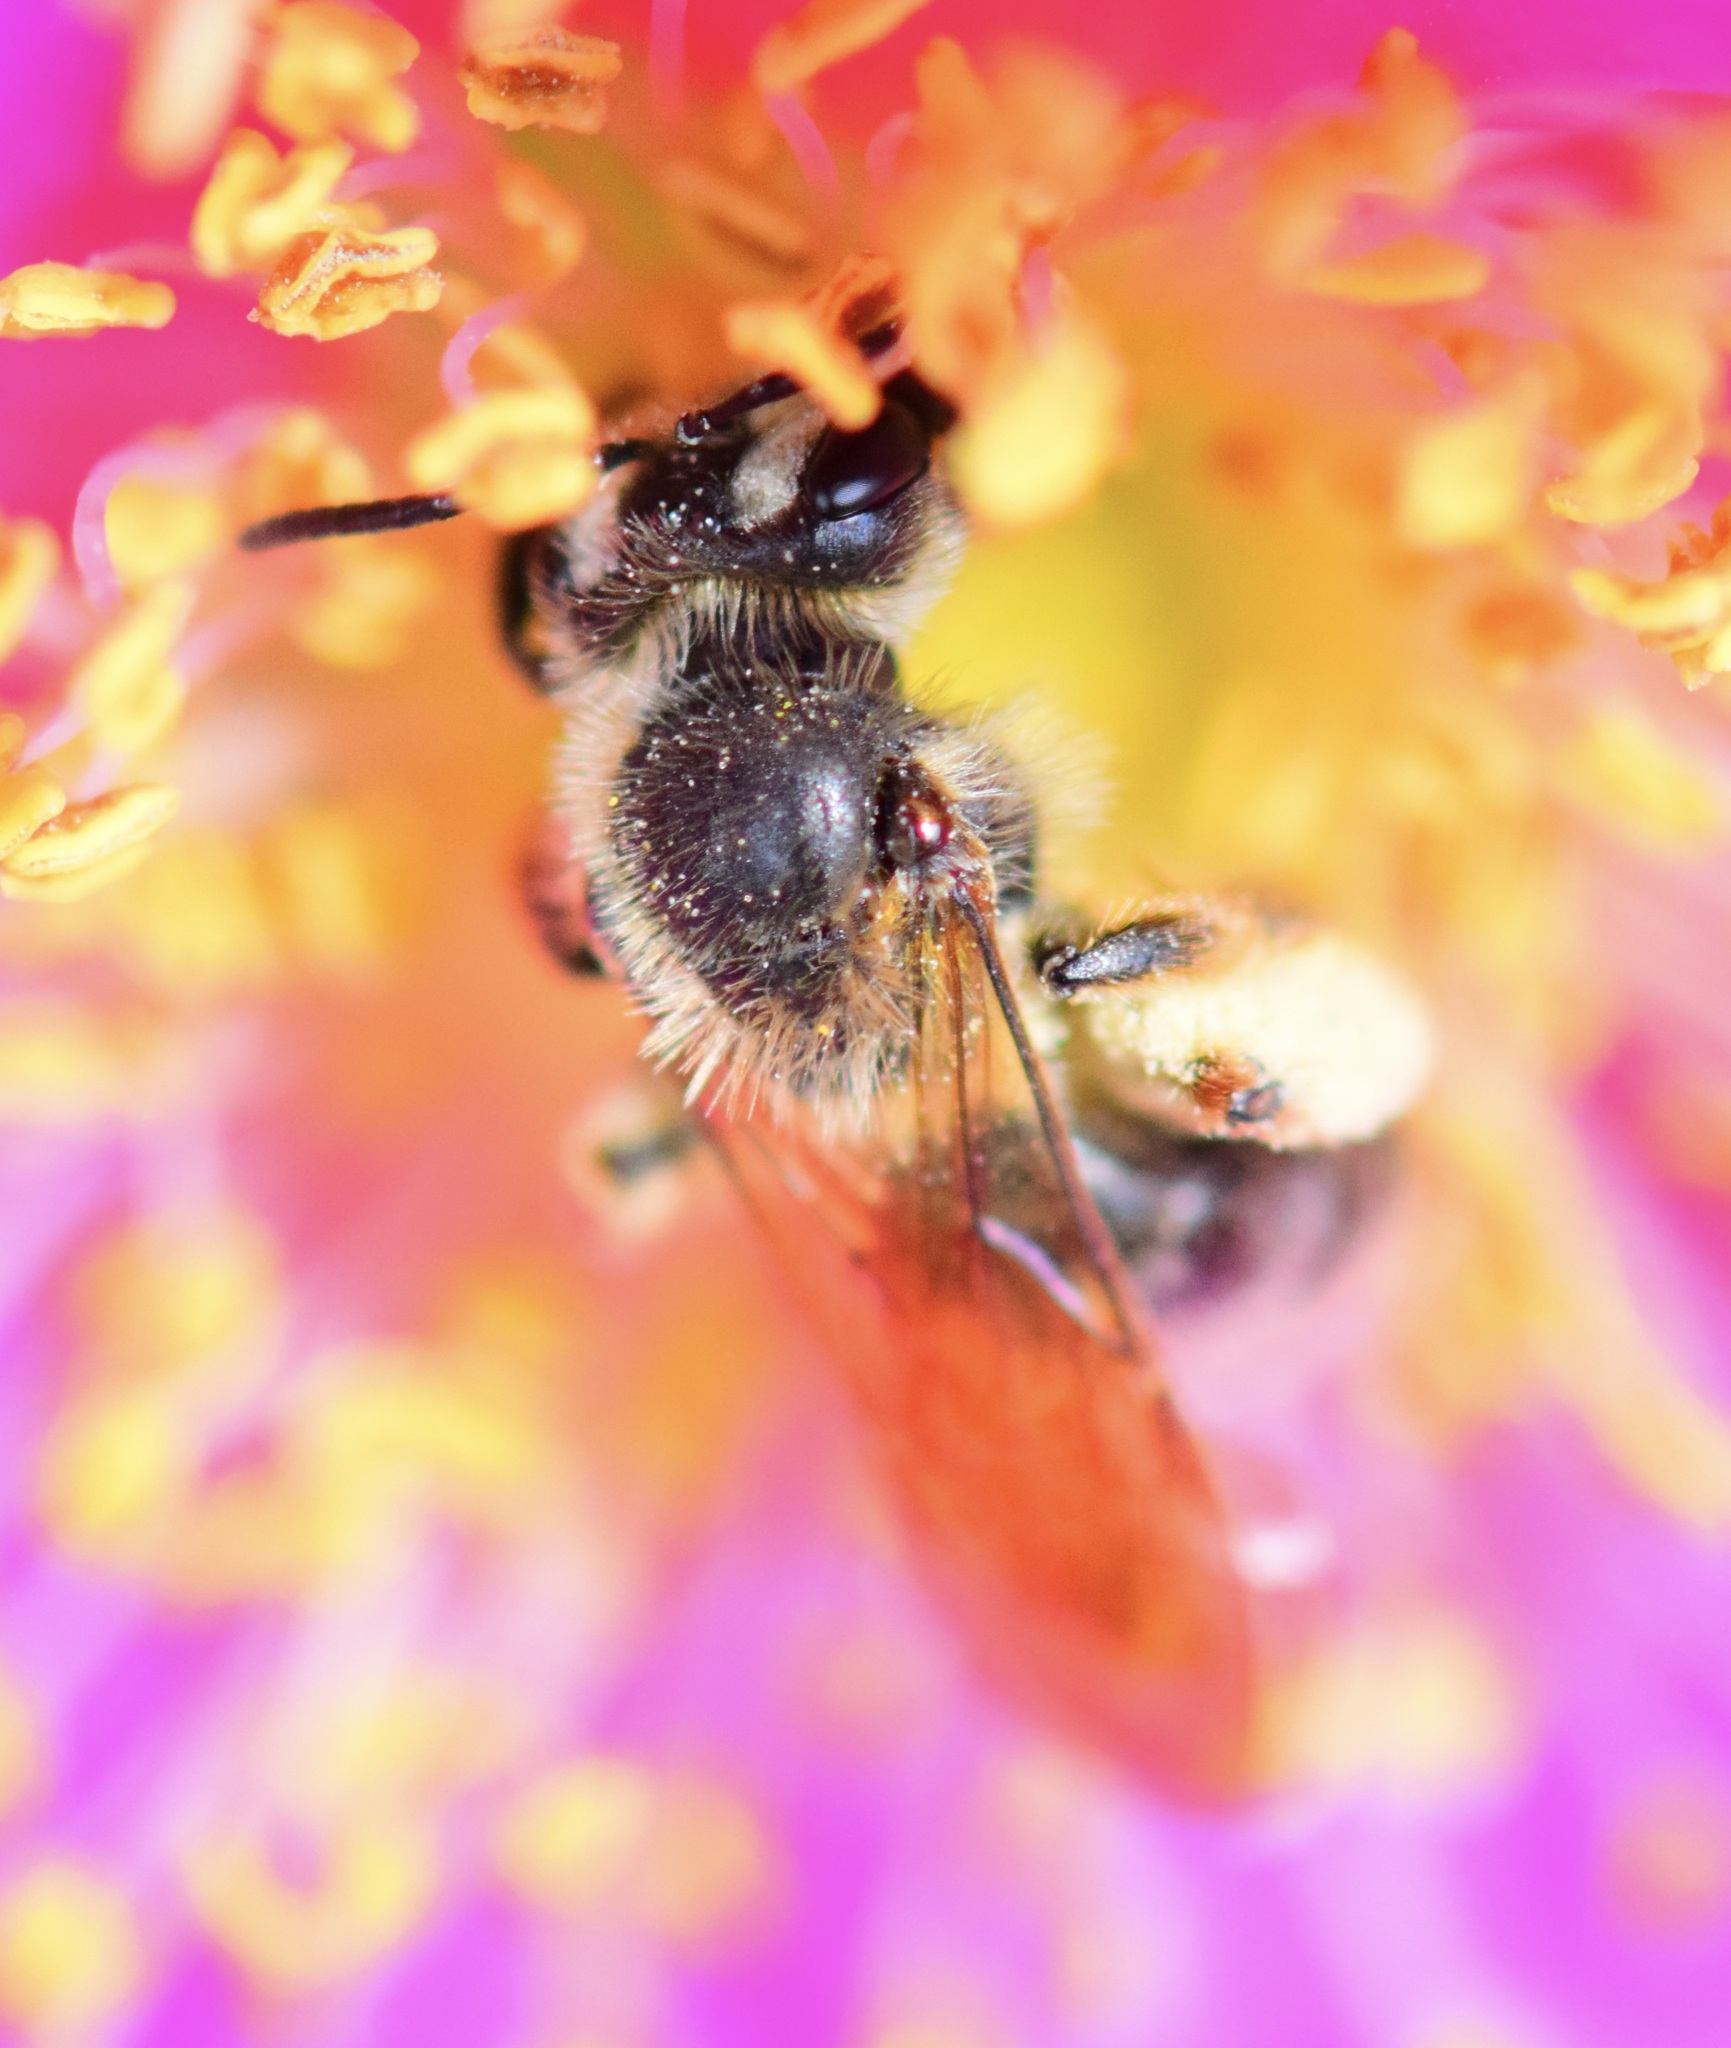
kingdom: Animalia
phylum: Arthropoda
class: Insecta
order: Hymenoptera
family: Andrenidae
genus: Andrena
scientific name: Andrena thaspii
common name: Parsnip miner bee
